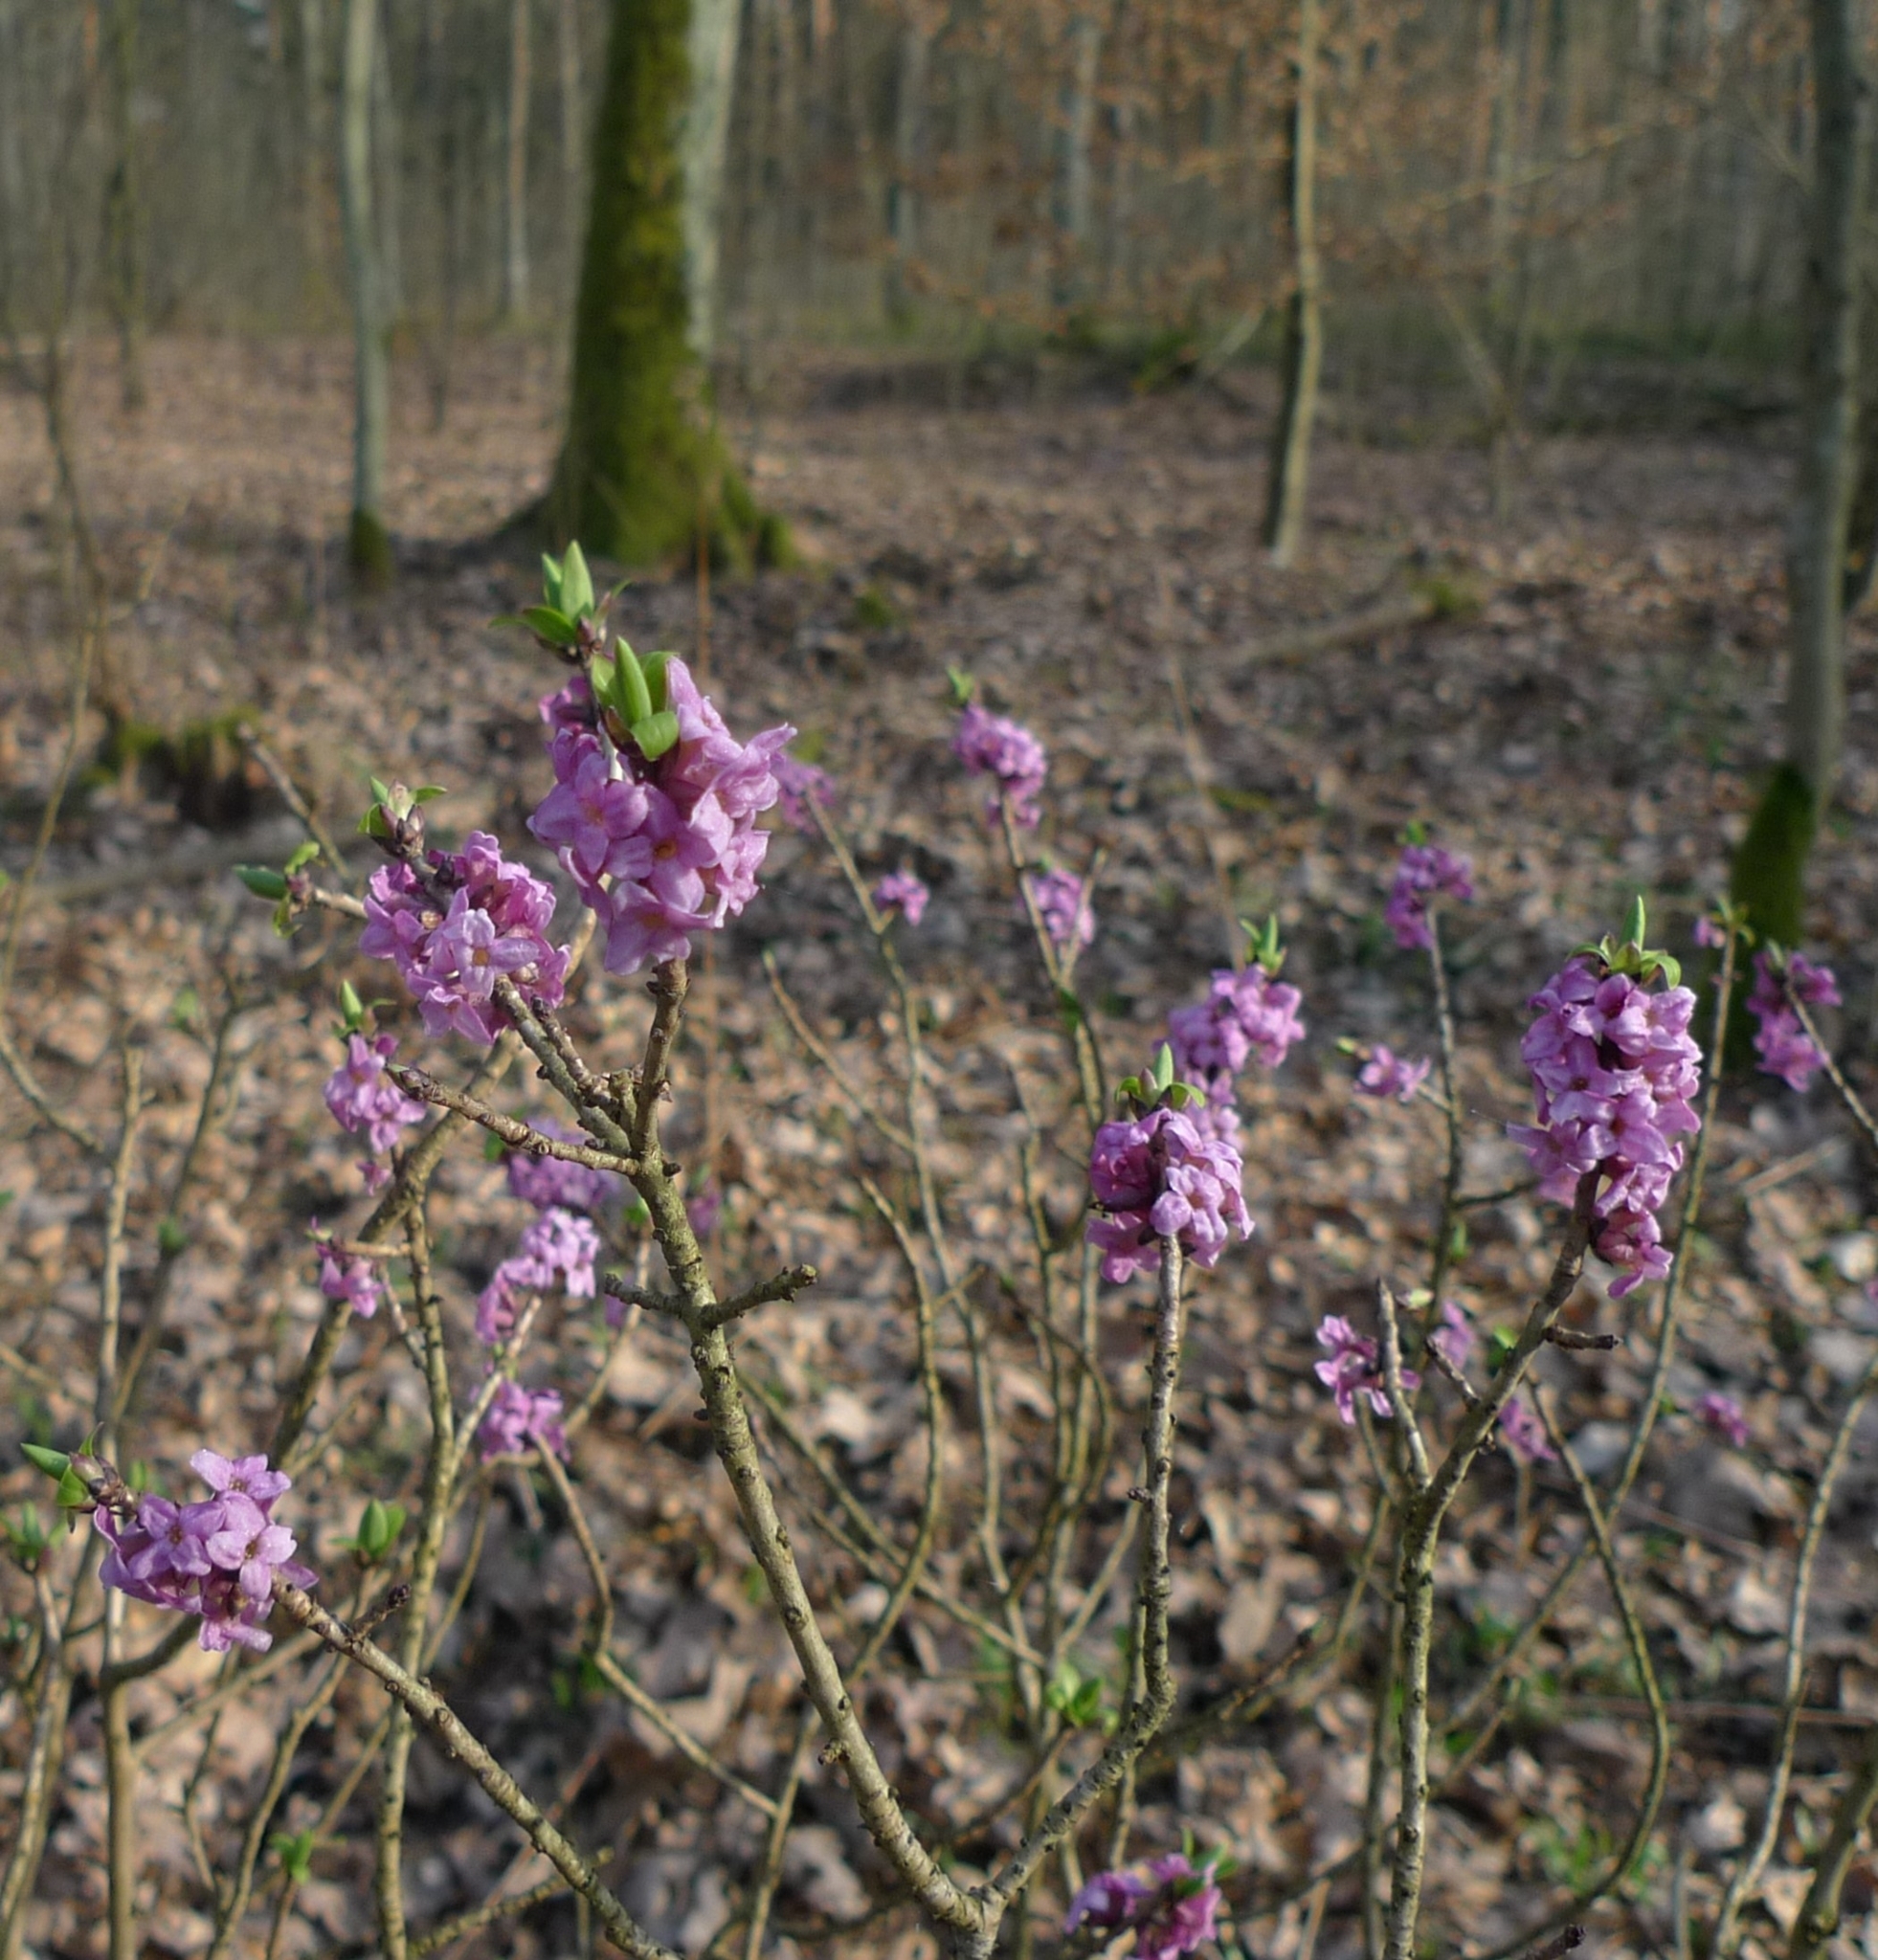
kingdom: Plantae
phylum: Tracheophyta
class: Magnoliopsida
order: Malvales
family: Thymelaeaceae
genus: Daphne
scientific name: Daphne mezereum
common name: Mezereon
